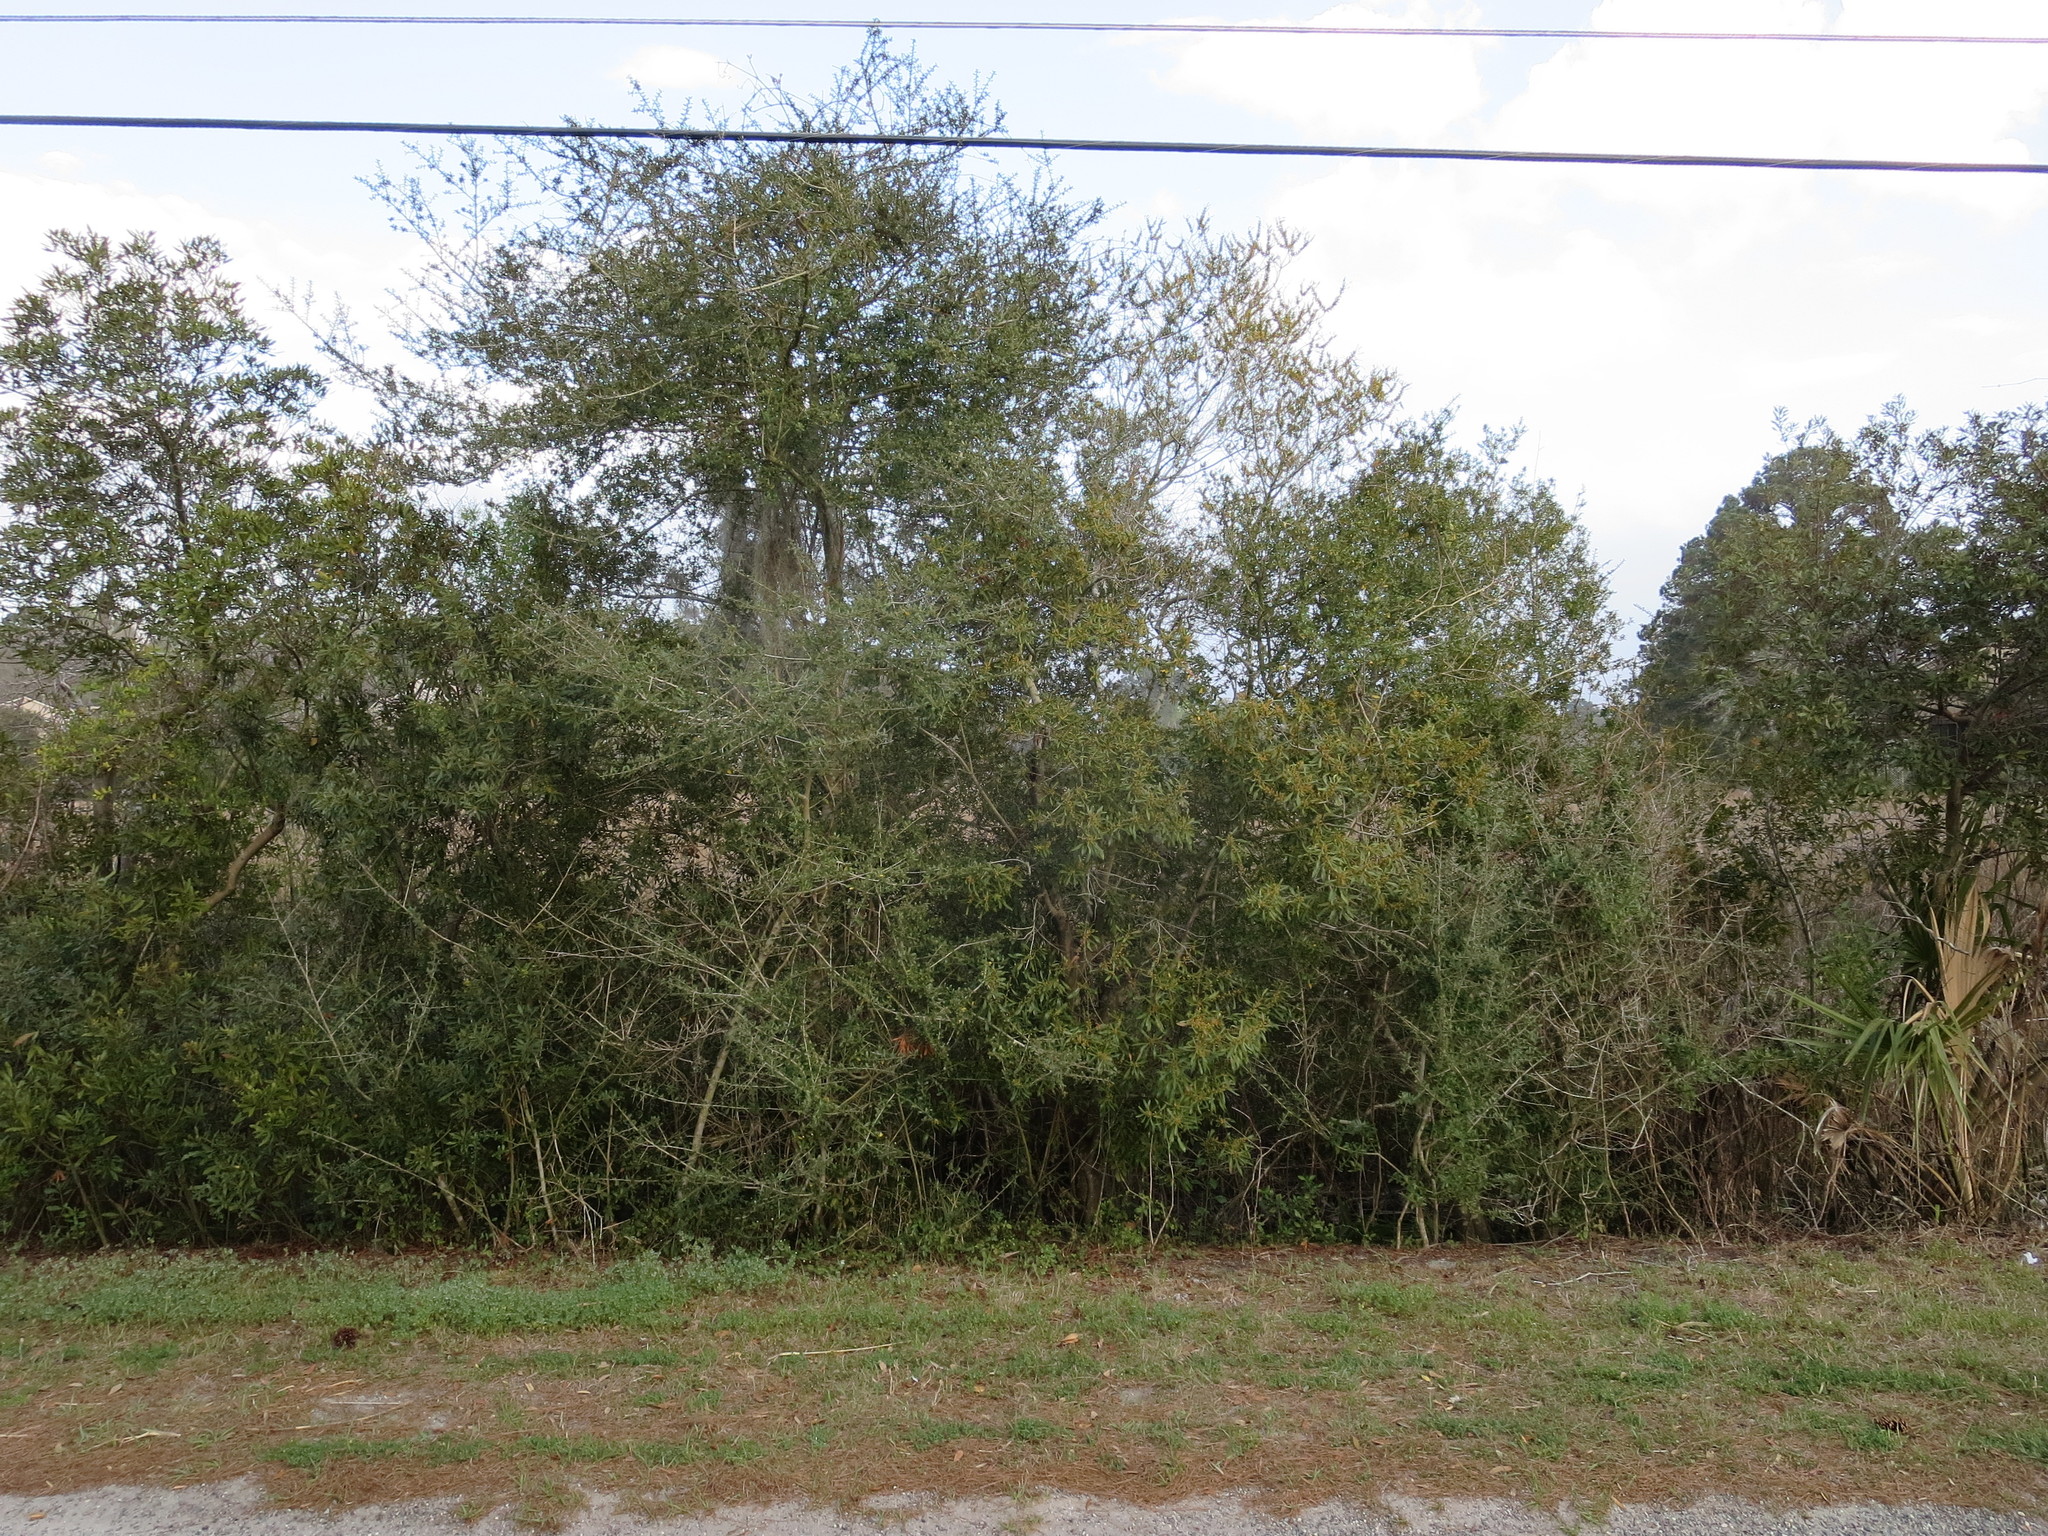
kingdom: Plantae
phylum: Tracheophyta
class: Magnoliopsida
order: Fagales
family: Myricaceae
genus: Morella
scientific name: Morella cerifera
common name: Wax myrtle
